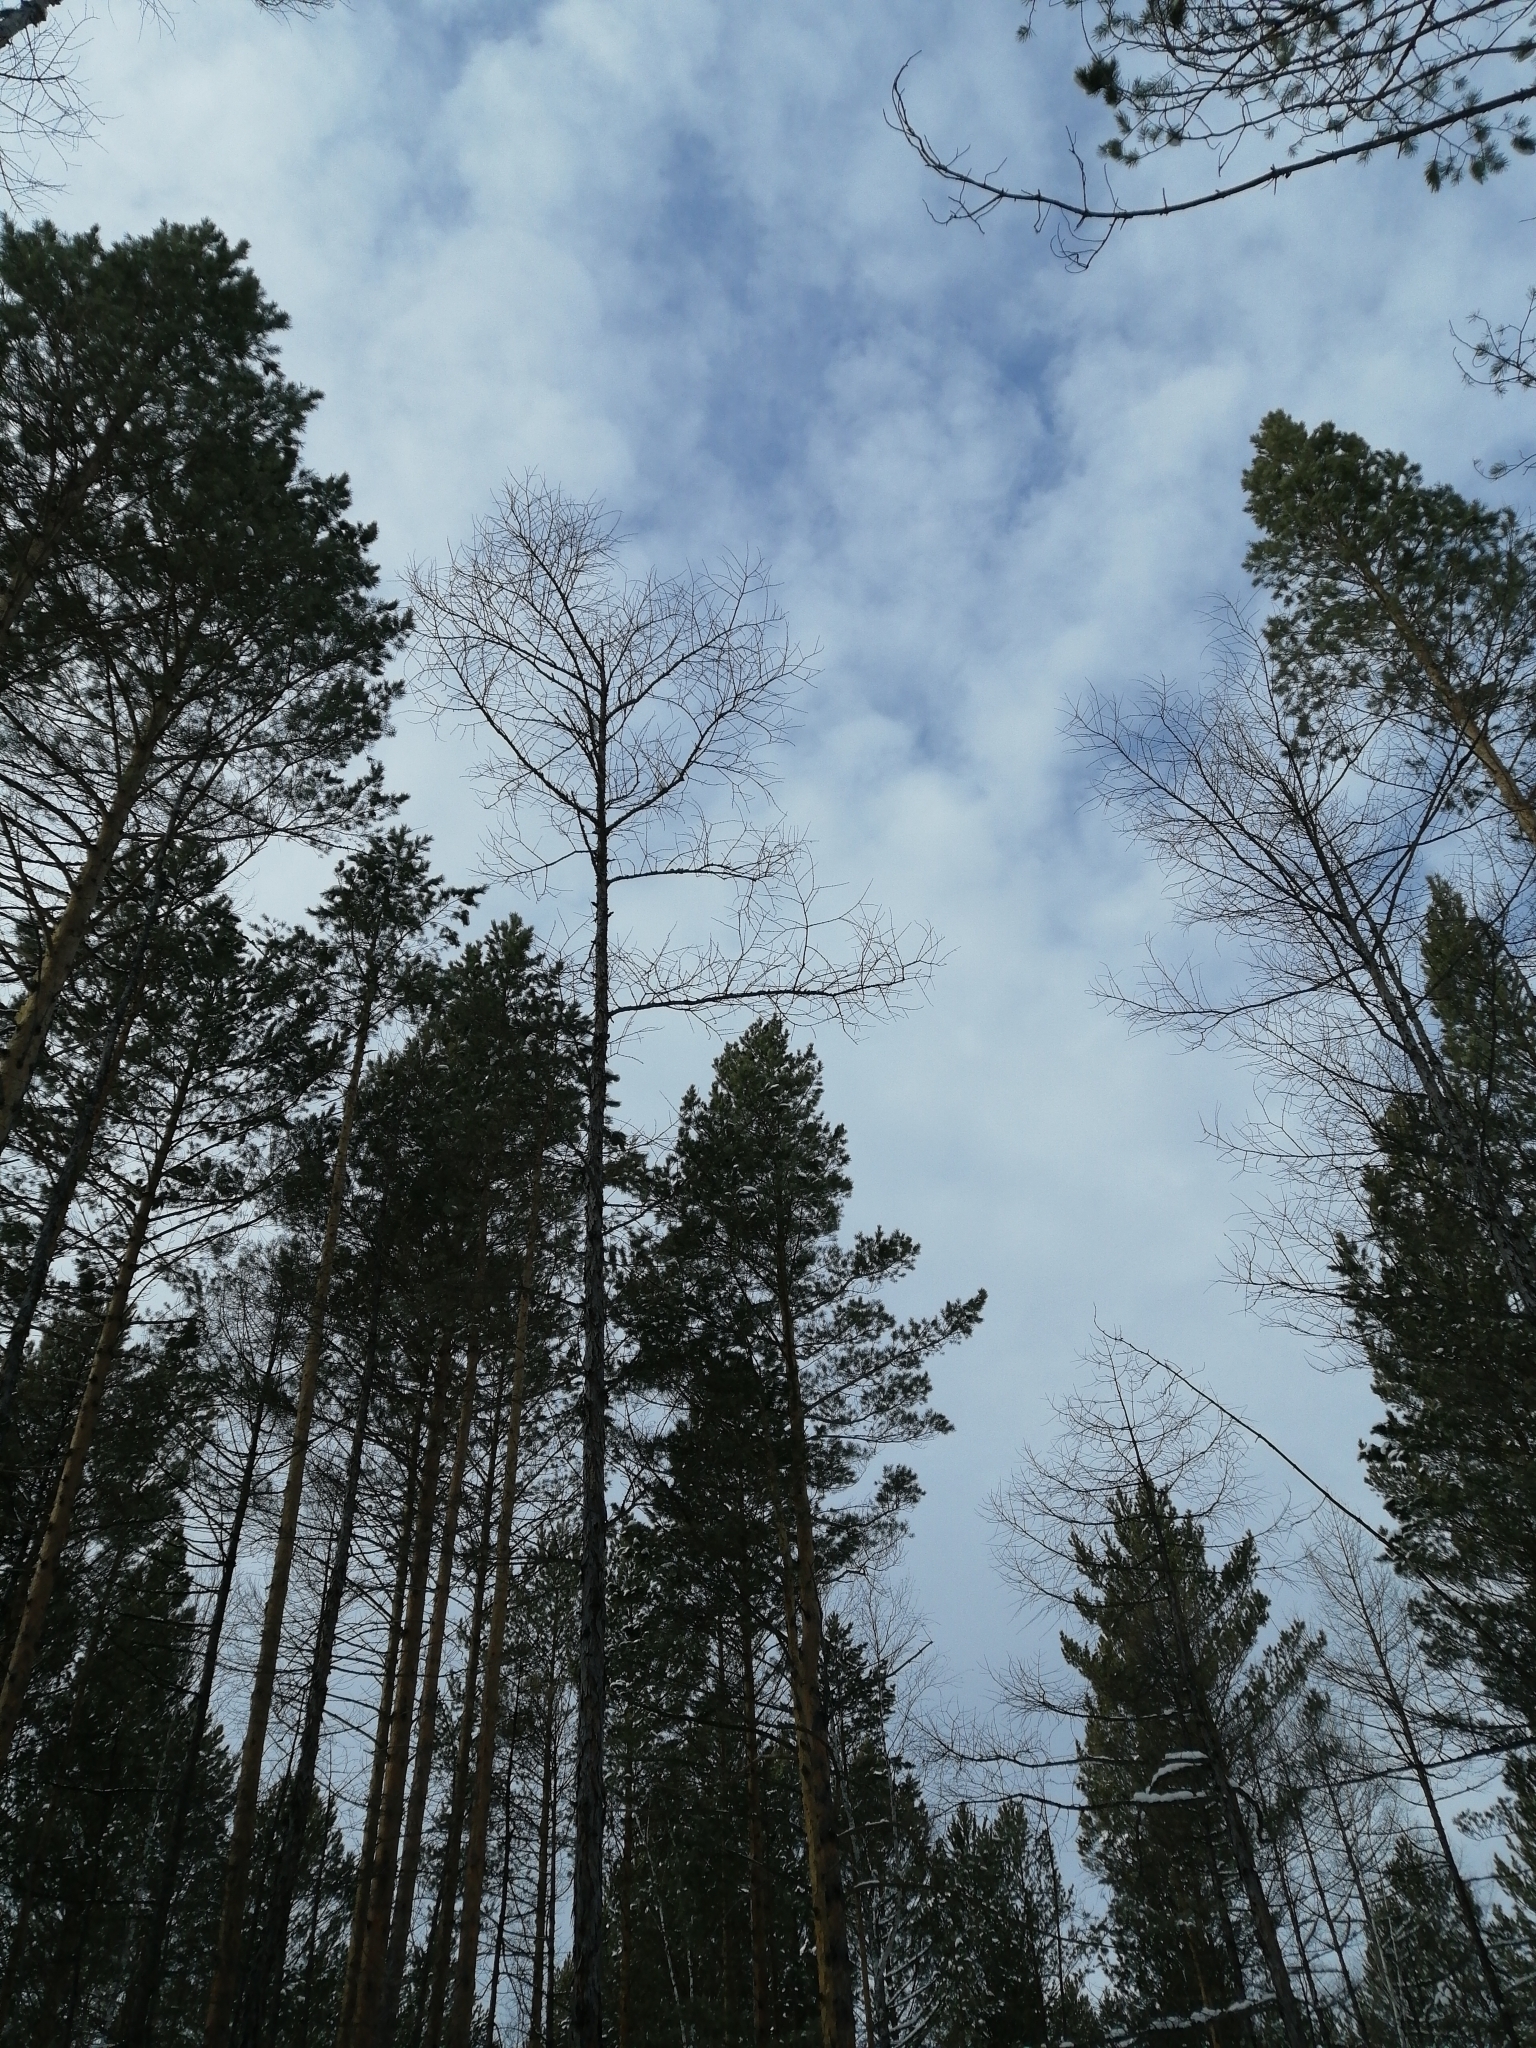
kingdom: Plantae
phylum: Tracheophyta
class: Pinopsida
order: Pinales
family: Pinaceae
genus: Larix
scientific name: Larix sibirica
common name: Siberian larch
